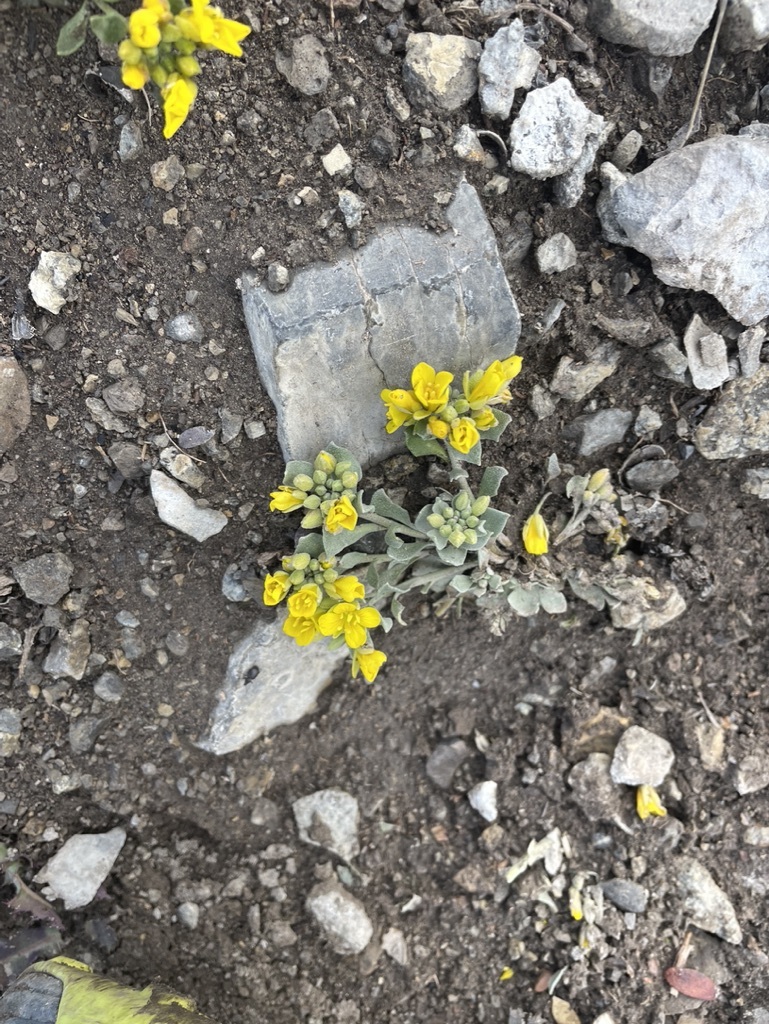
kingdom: Plantae
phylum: Tracheophyta
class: Magnoliopsida
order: Brassicales
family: Brassicaceae
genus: Physaria
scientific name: Physaria didymocarpa
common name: Common twinpod
